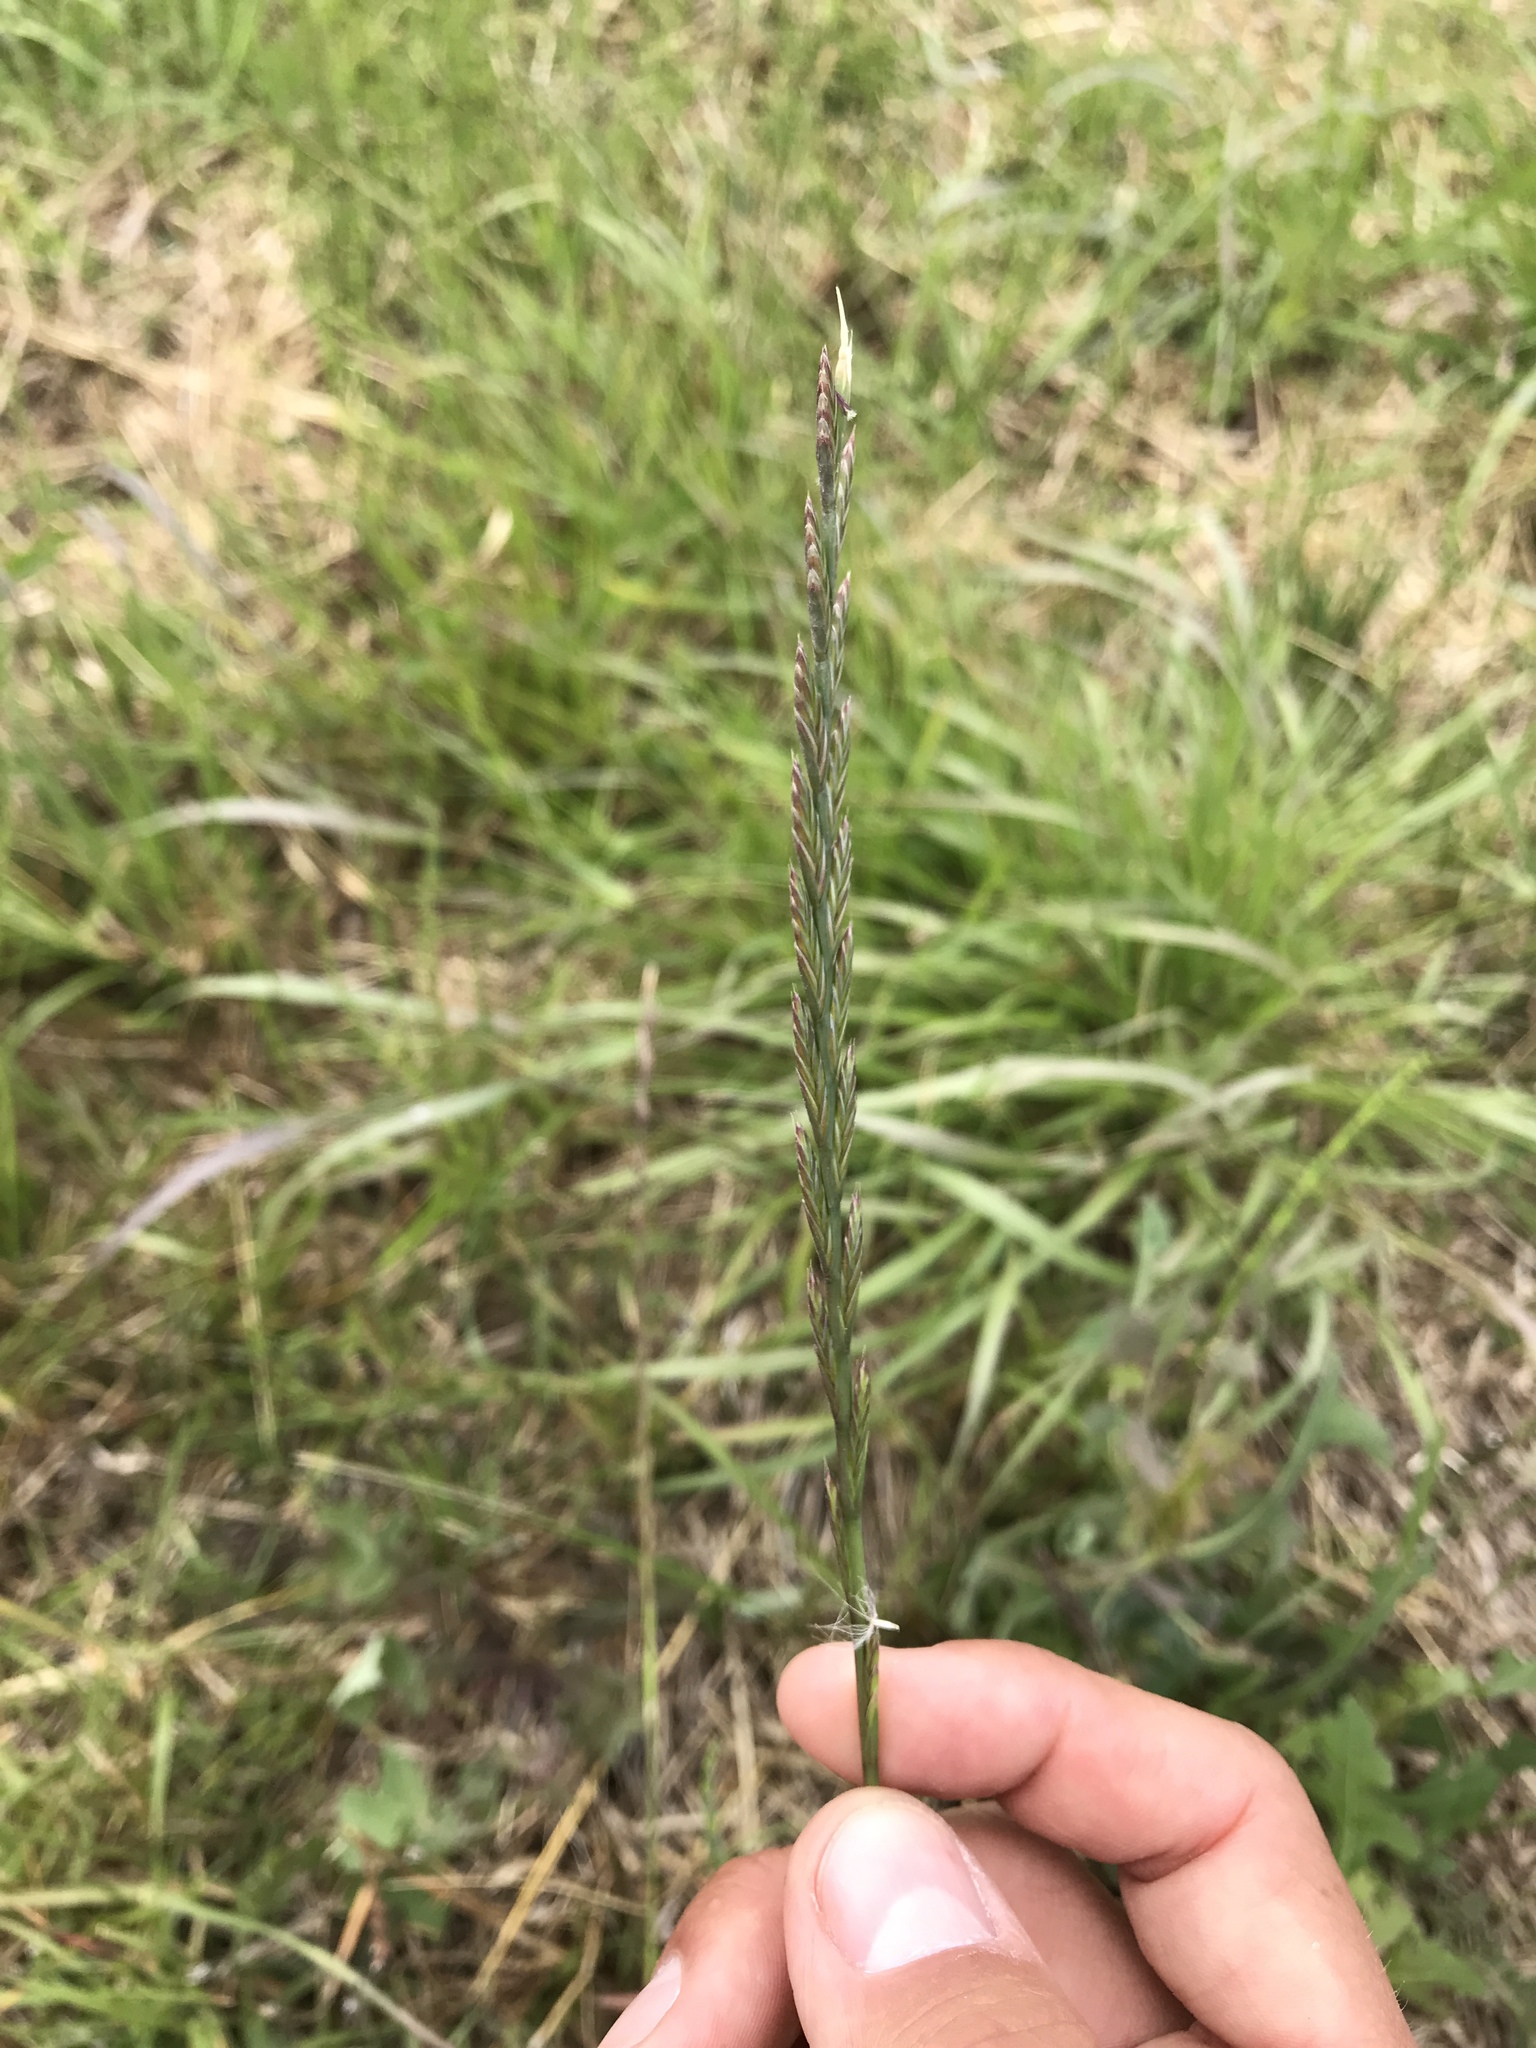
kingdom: Plantae
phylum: Tracheophyta
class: Liliopsida
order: Poales
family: Poaceae
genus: Lolium
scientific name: Lolium perenne
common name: Perennial ryegrass
